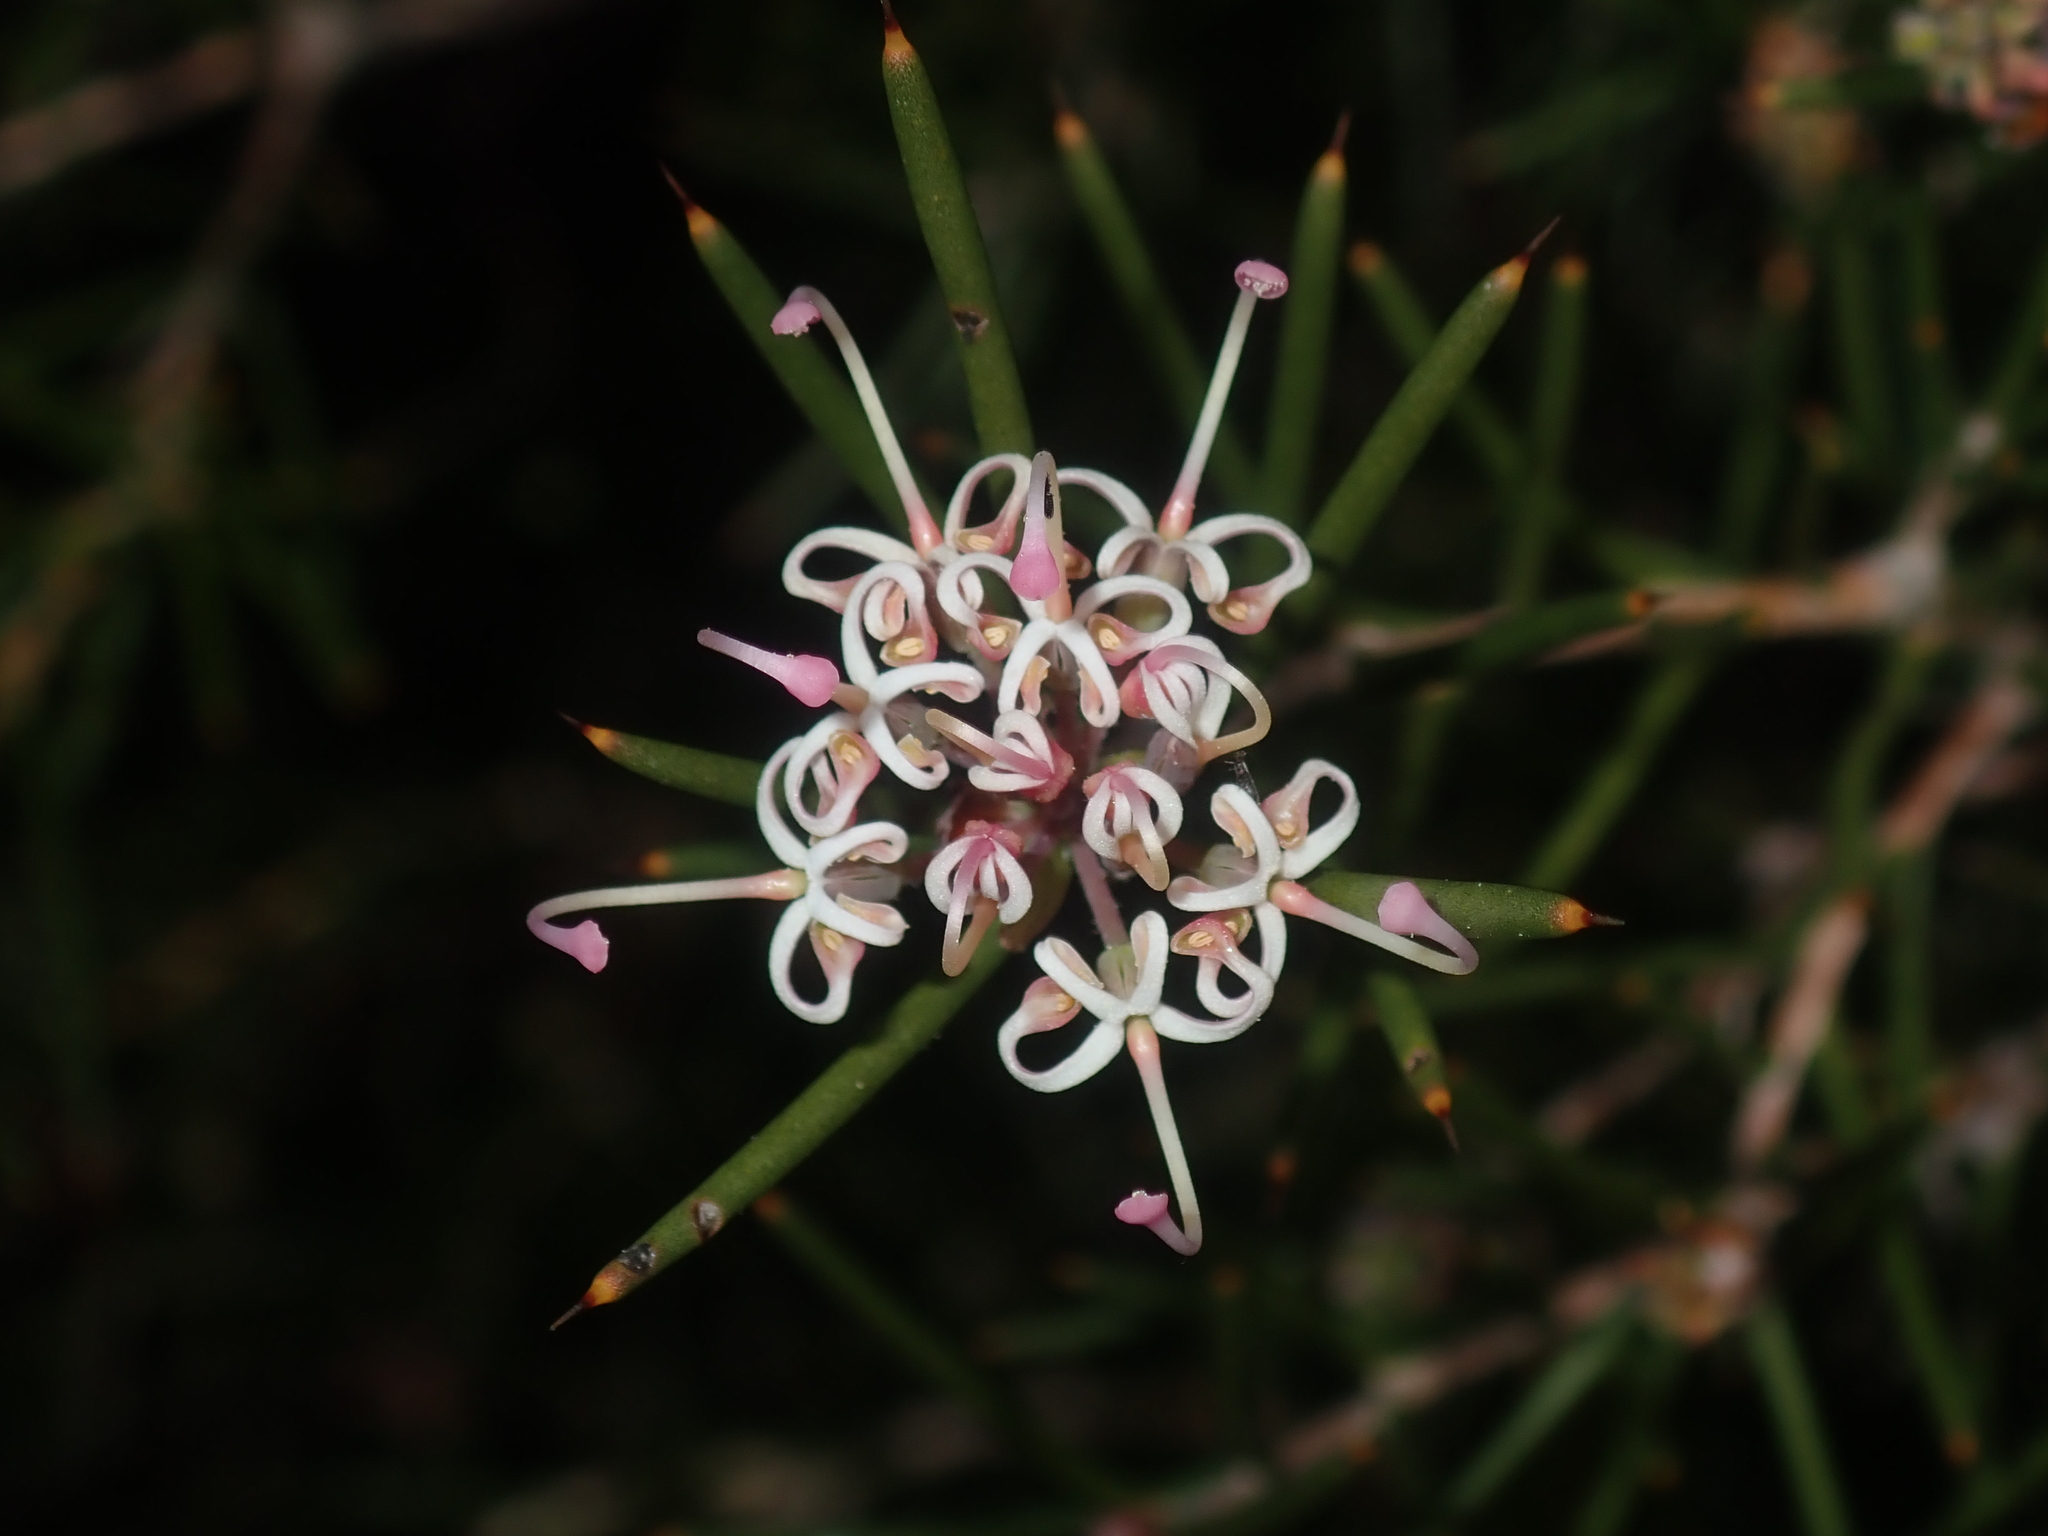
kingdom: Plantae
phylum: Tracheophyta
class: Magnoliopsida
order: Proteales
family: Proteaceae
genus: Hakea
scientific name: Hakea circumalata
